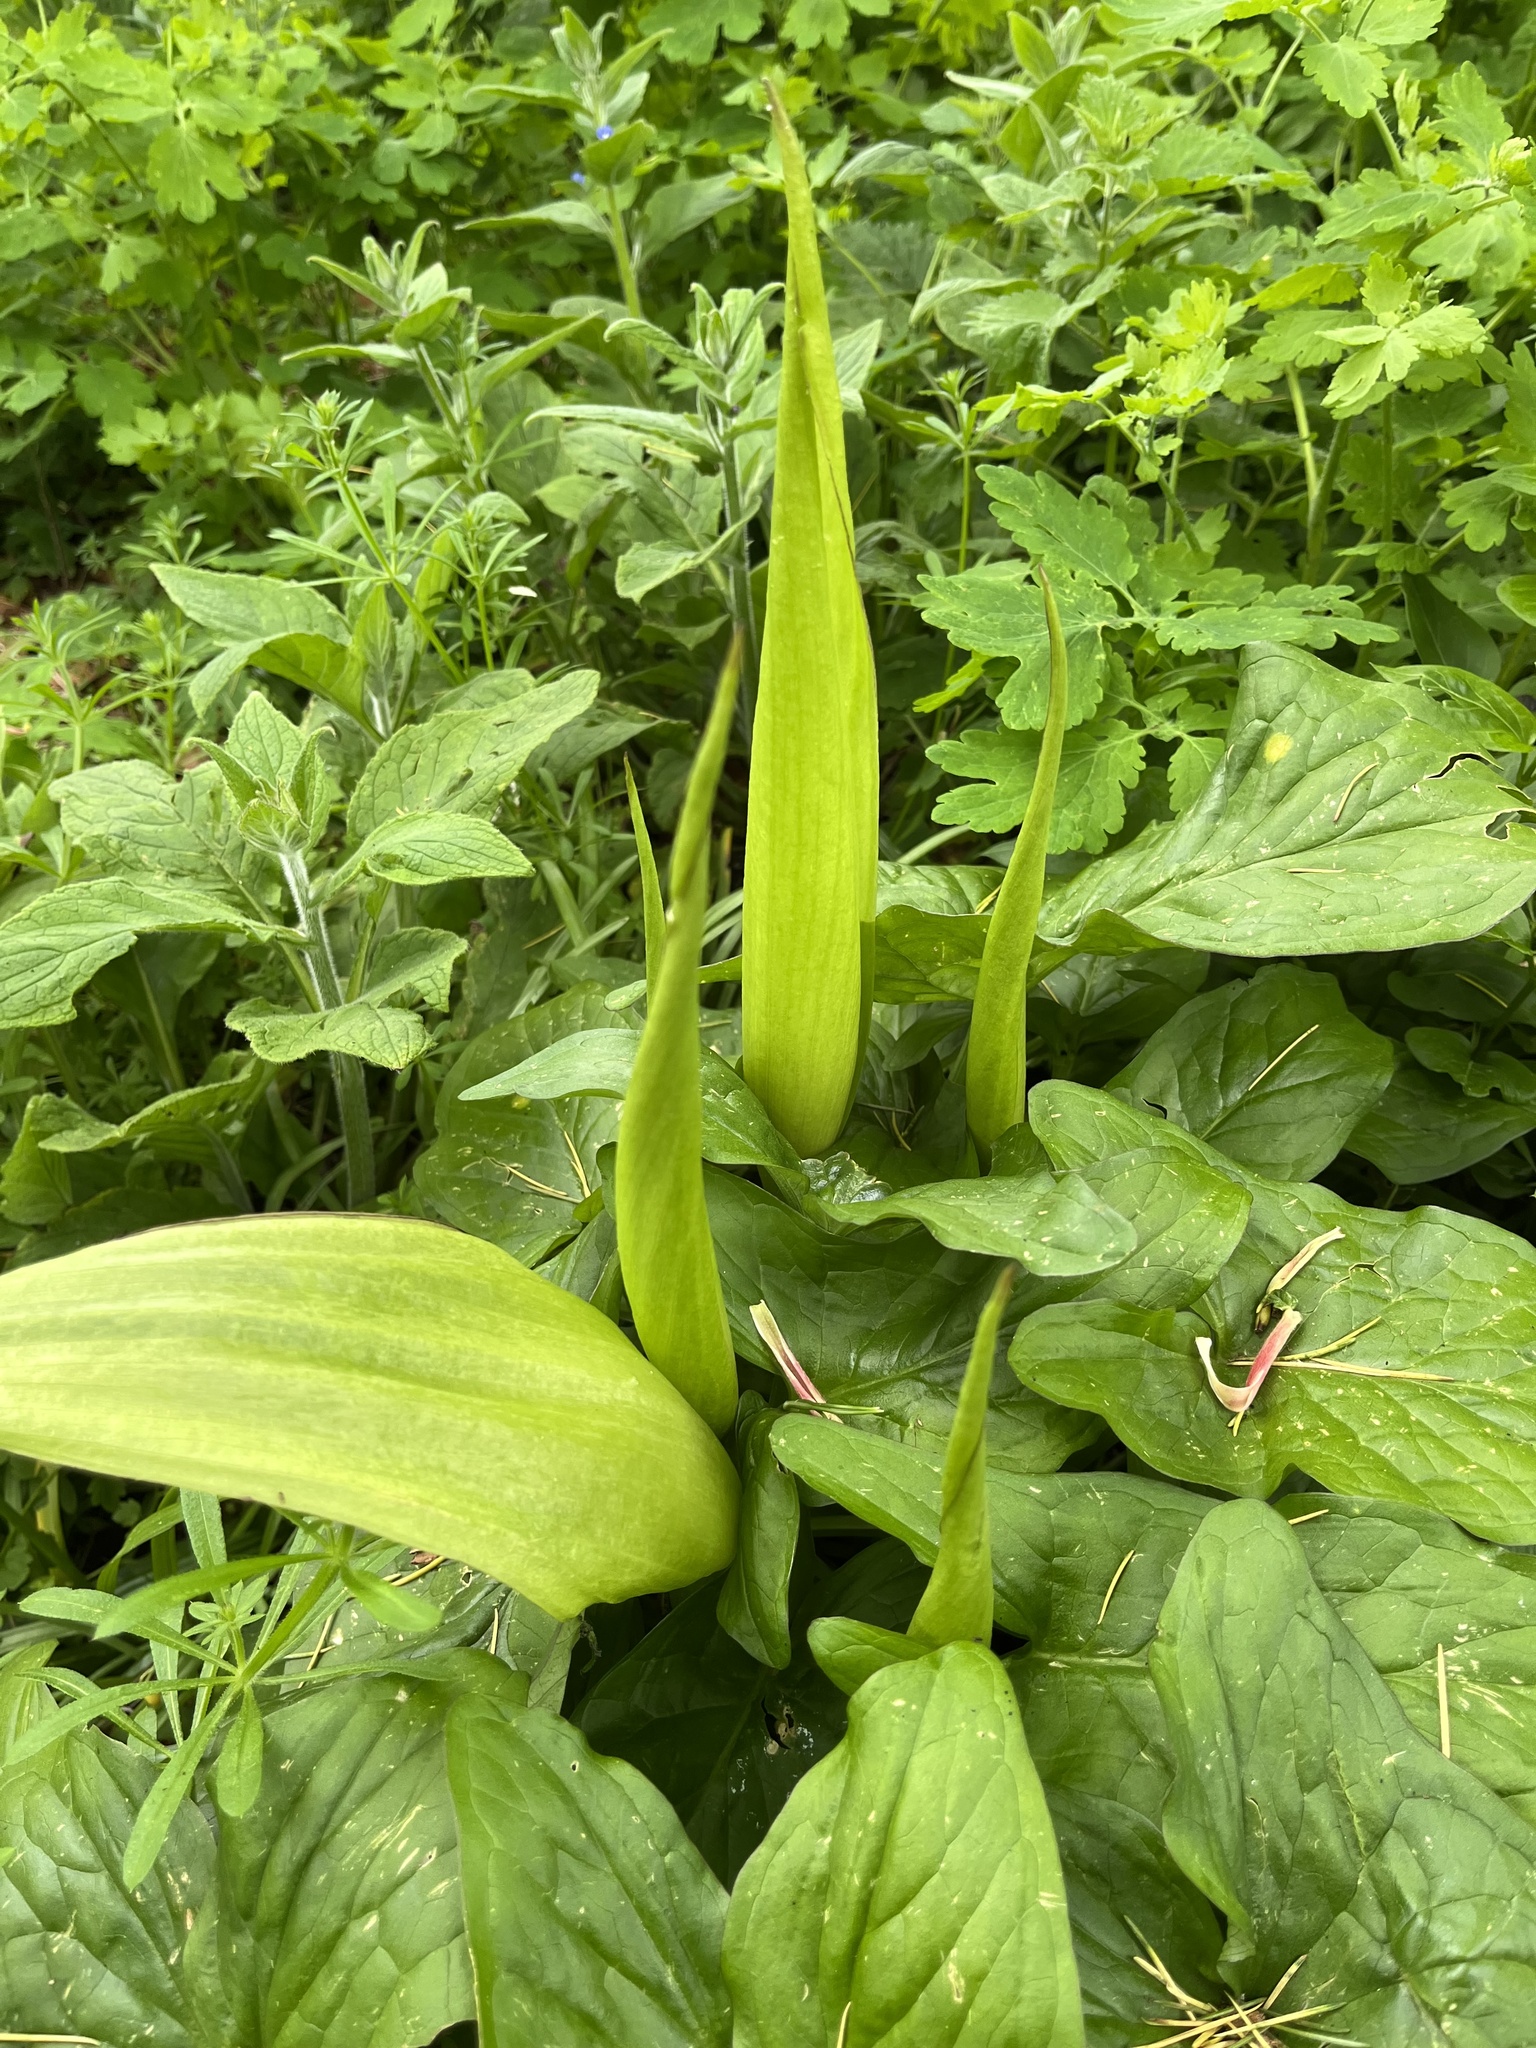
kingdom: Plantae
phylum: Tracheophyta
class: Liliopsida
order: Alismatales
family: Araceae
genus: Arum
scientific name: Arum maculatum
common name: Lords-and-ladies
